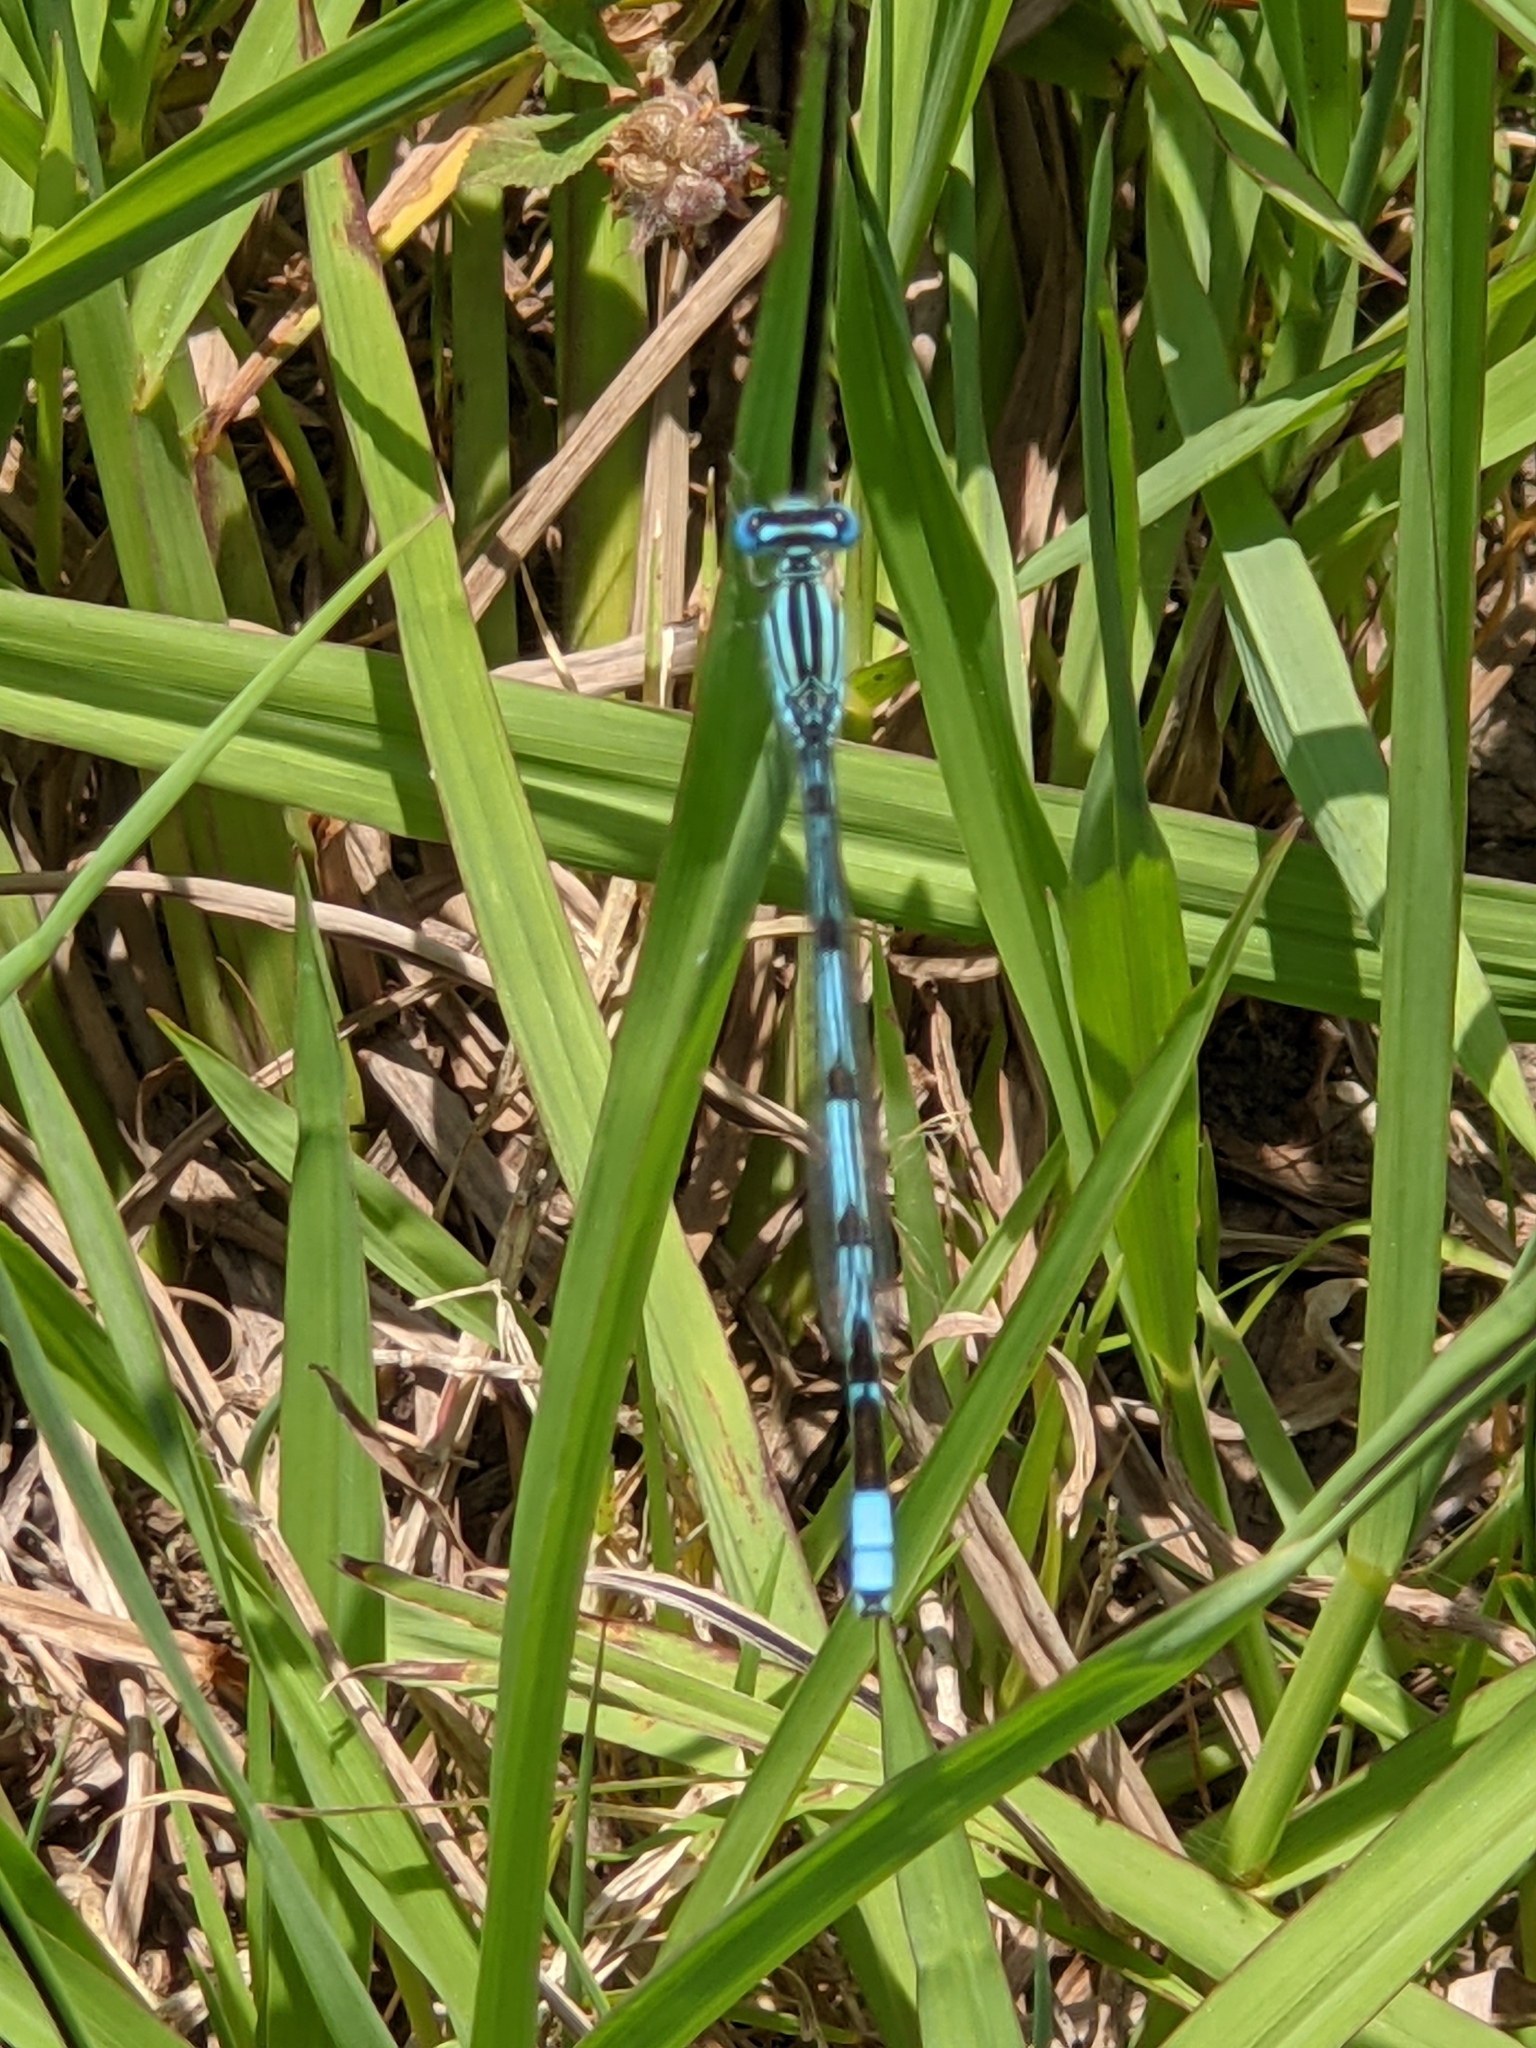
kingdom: Animalia
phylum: Arthropoda
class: Insecta
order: Odonata
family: Coenagrionidae
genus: Enallagma
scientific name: Enallagma durum
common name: Big bluet
